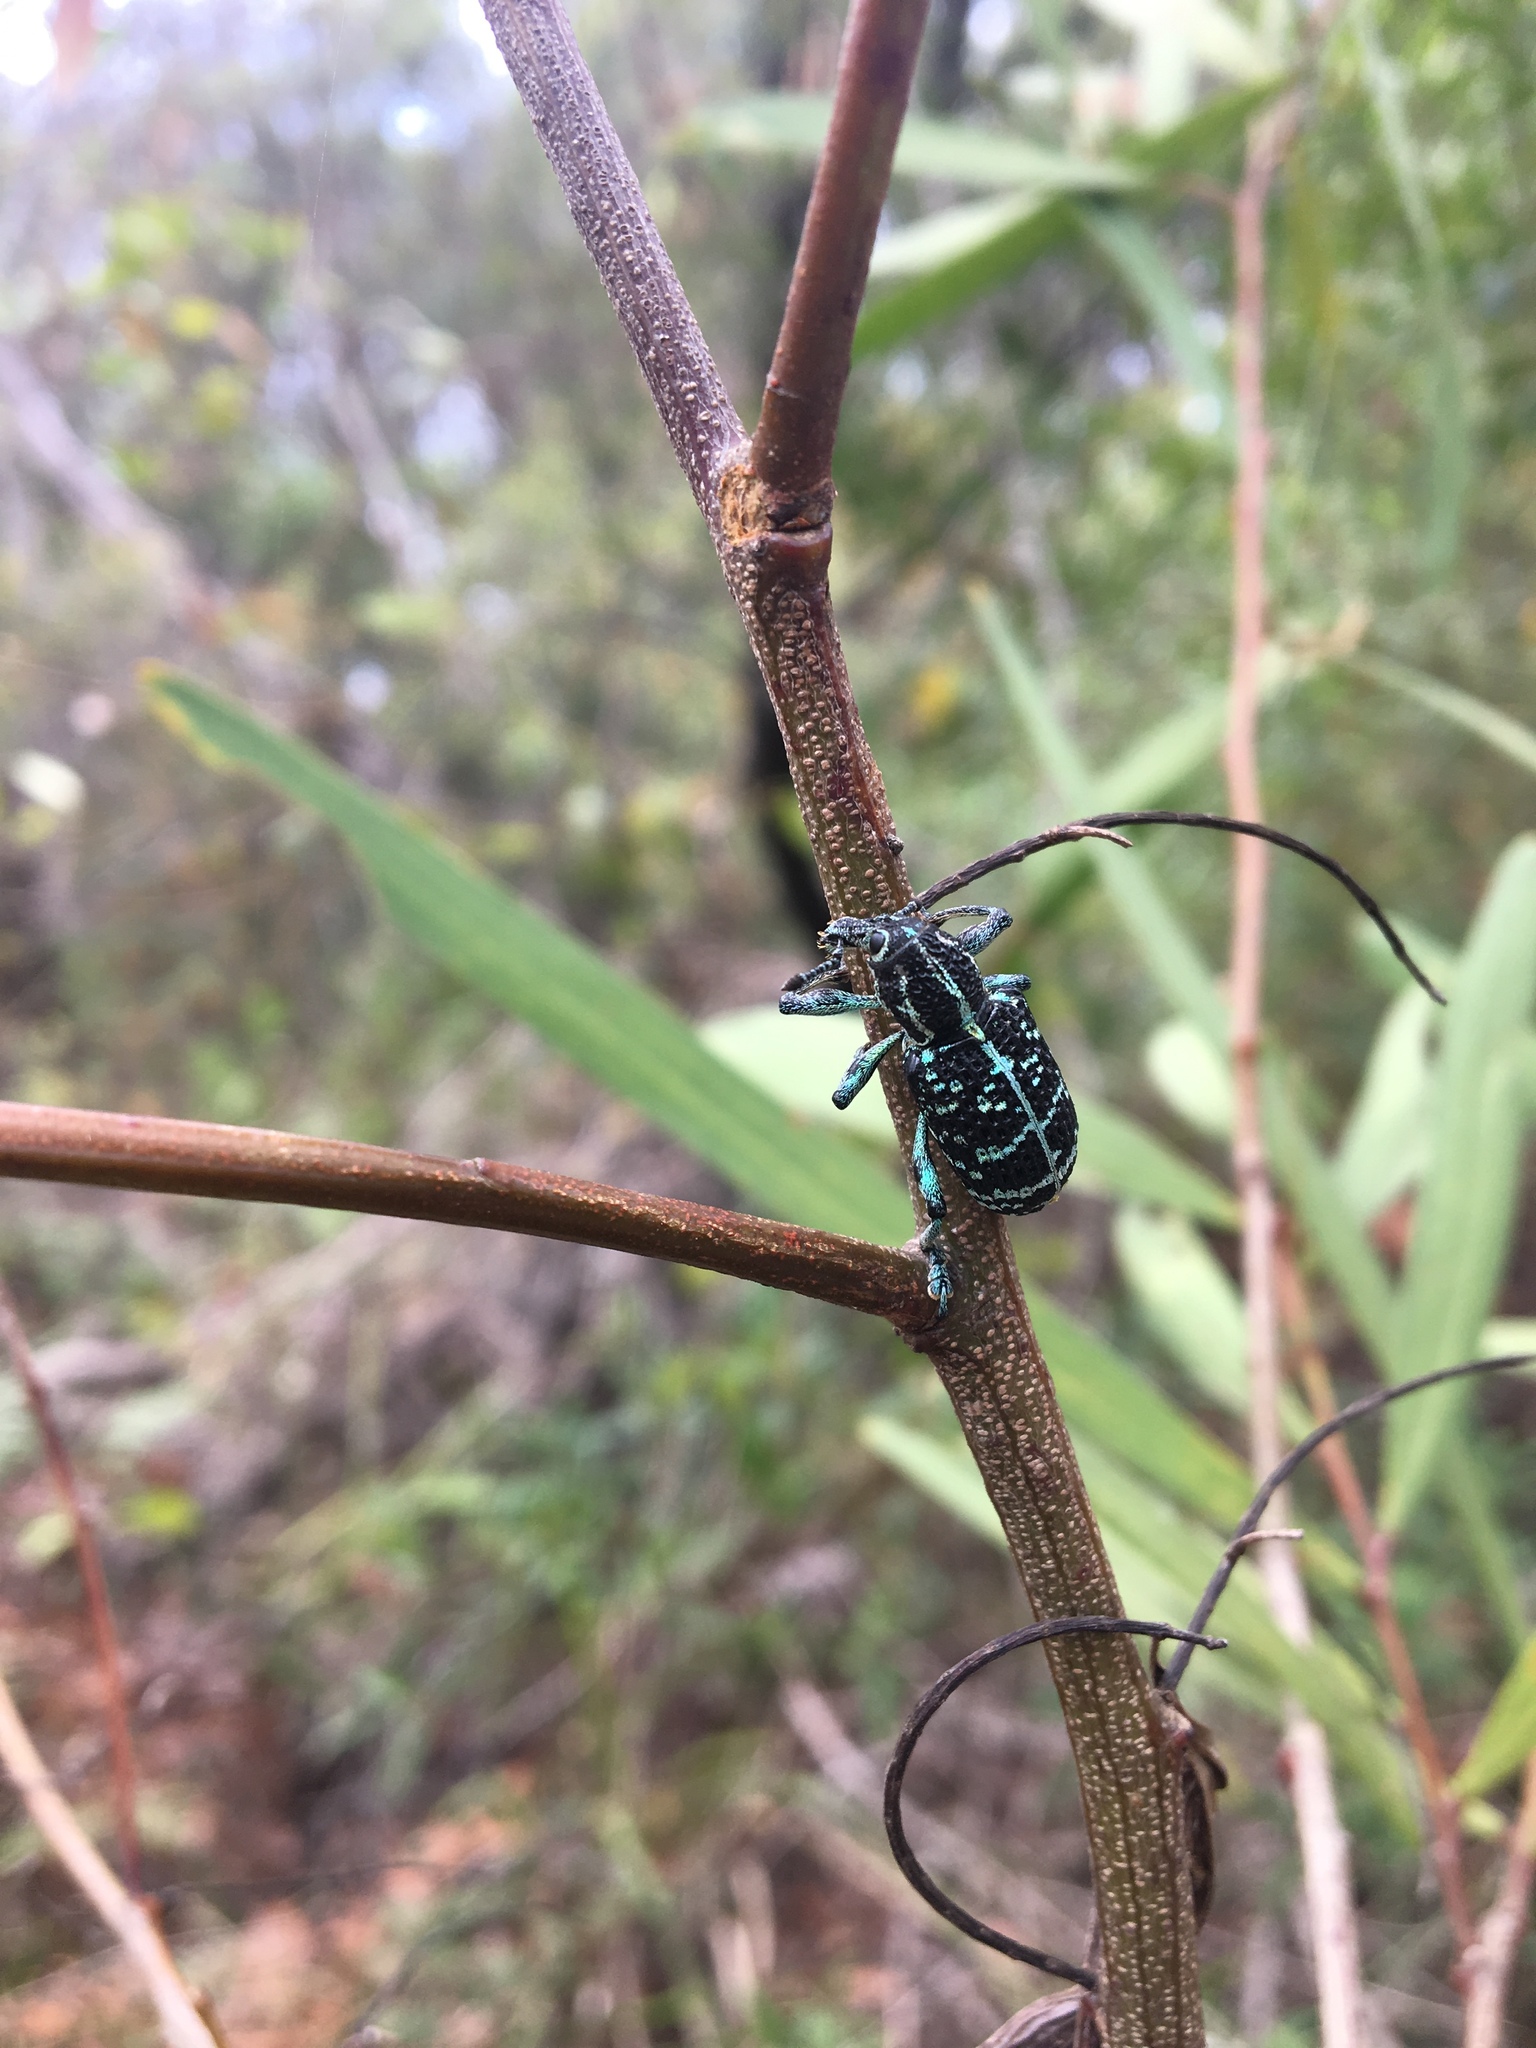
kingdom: Animalia
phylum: Arthropoda
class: Insecta
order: Coleoptera
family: Curculionidae
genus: Chrysolopus
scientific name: Chrysolopus spectabilis
